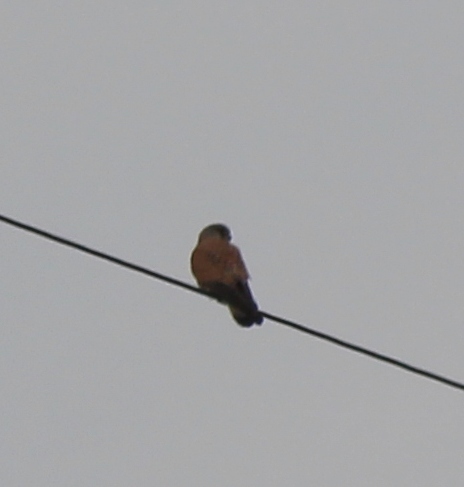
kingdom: Animalia
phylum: Chordata
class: Aves
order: Falconiformes
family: Falconidae
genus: Falco
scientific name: Falco tinnunculus
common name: Common kestrel
